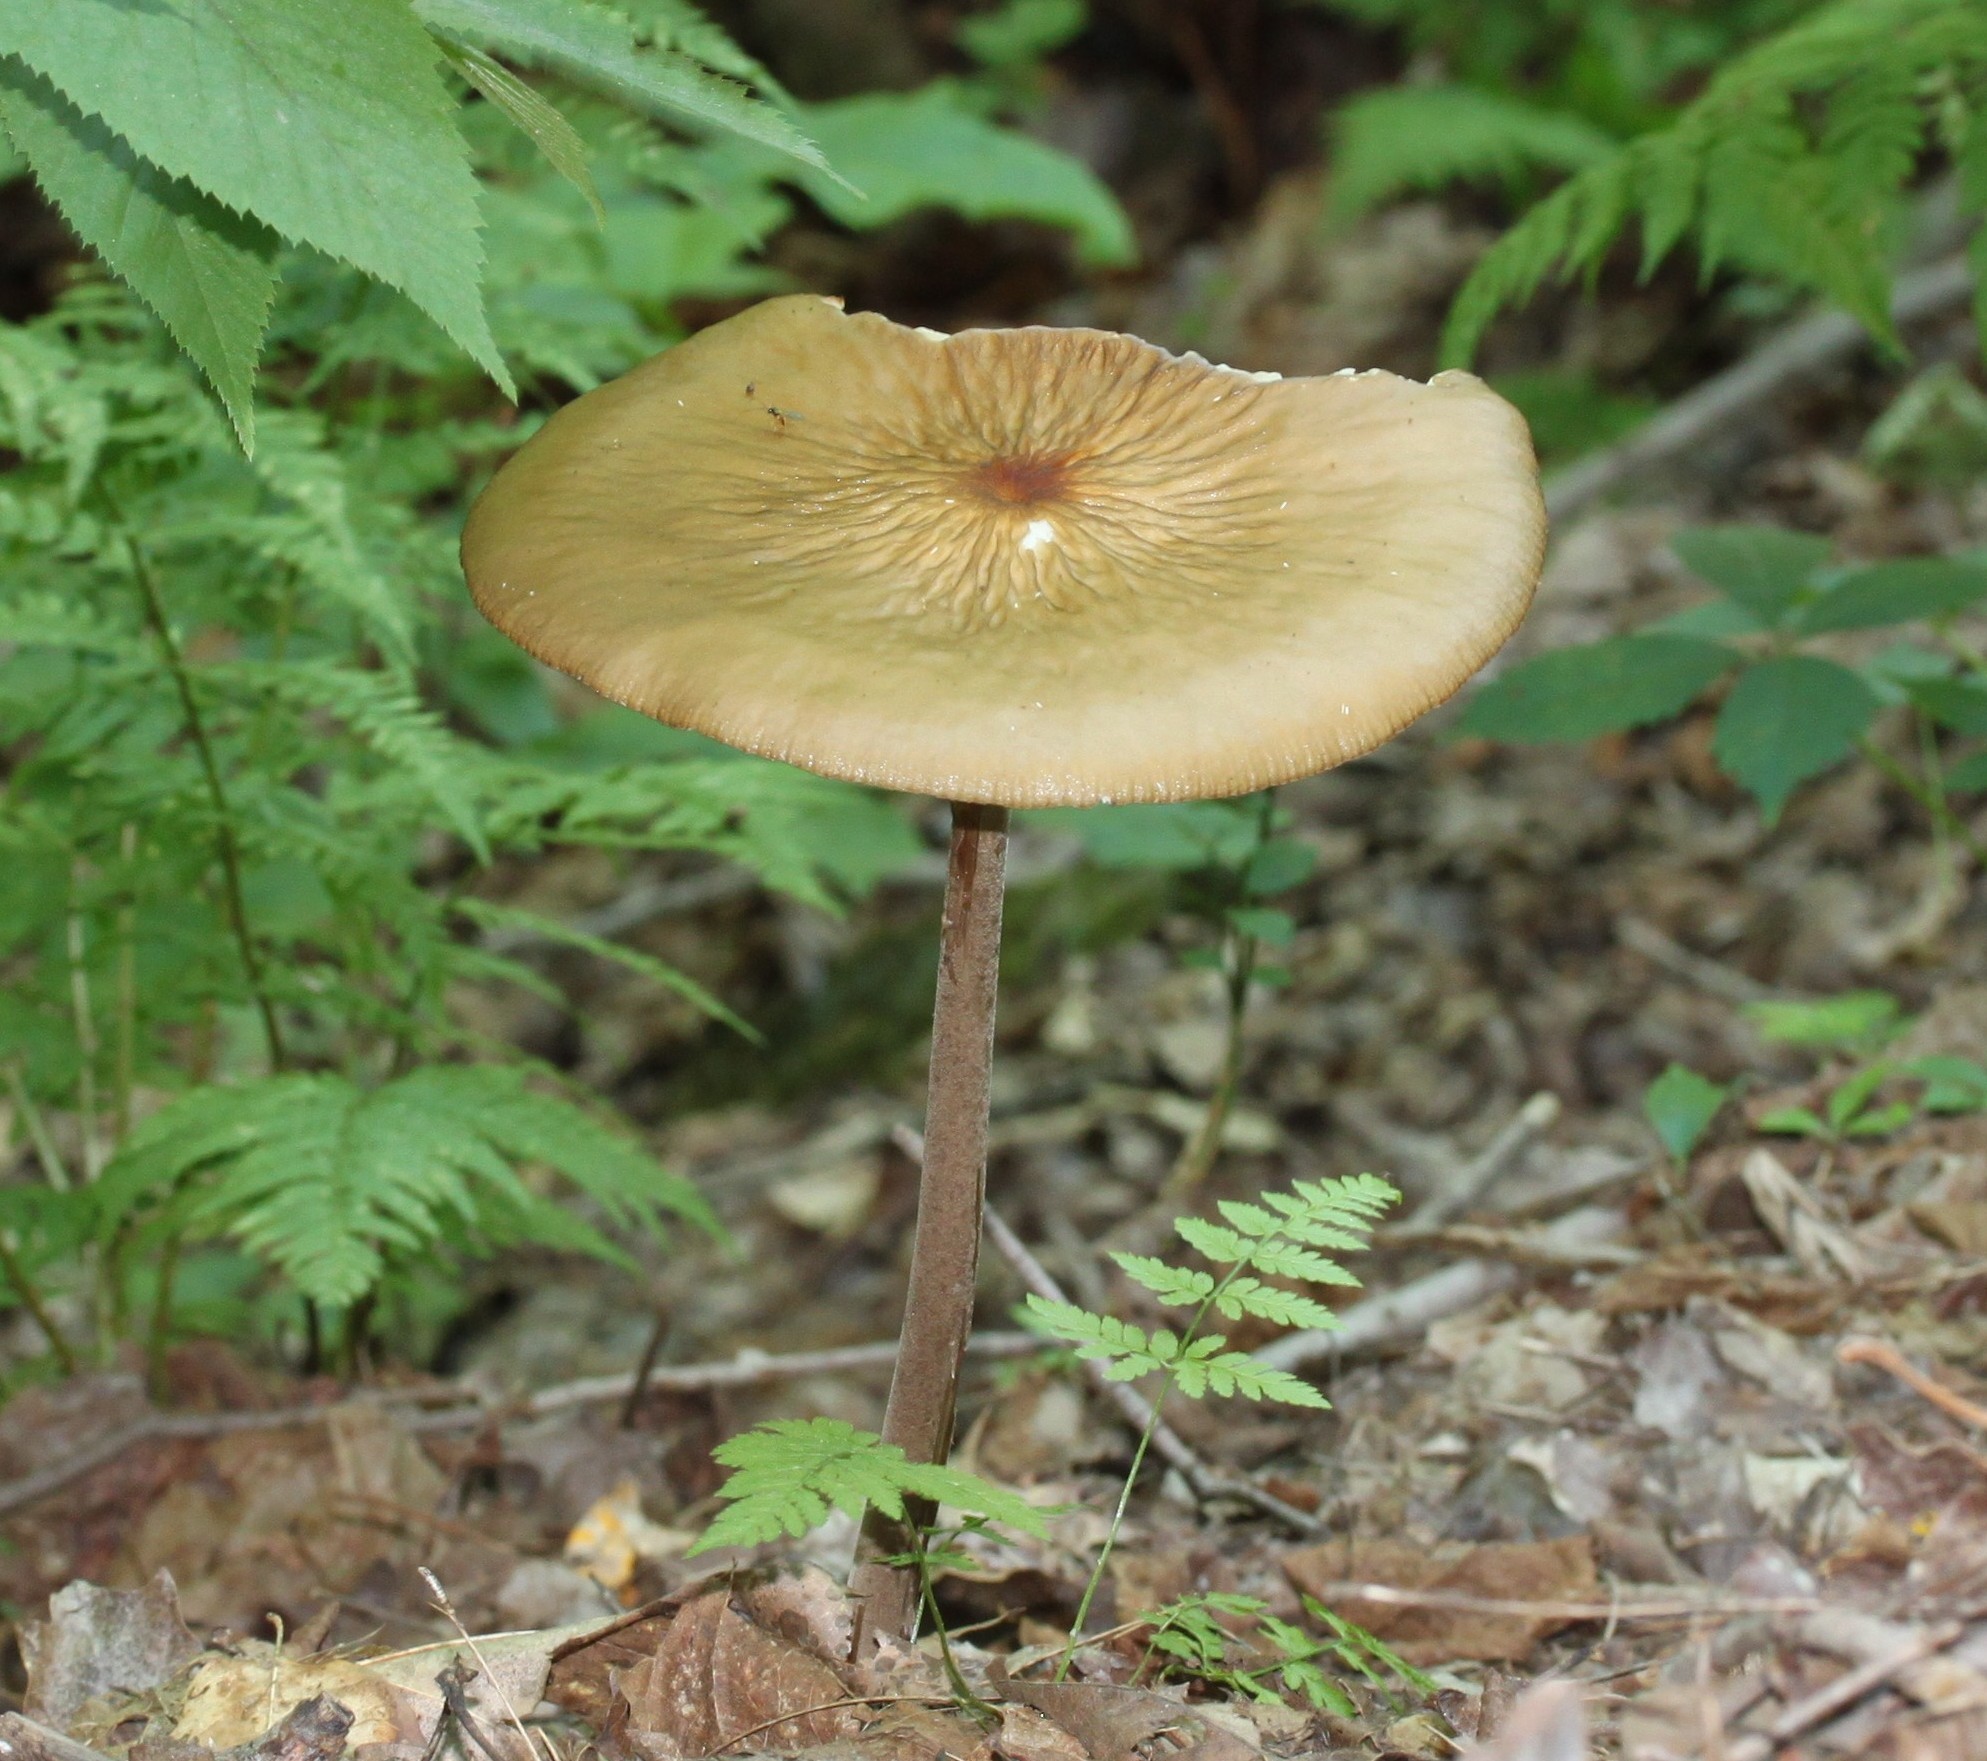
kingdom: Fungi
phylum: Basidiomycota
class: Agaricomycetes
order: Agaricales
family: Physalacriaceae
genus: Hymenopellis
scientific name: Hymenopellis furfuracea
